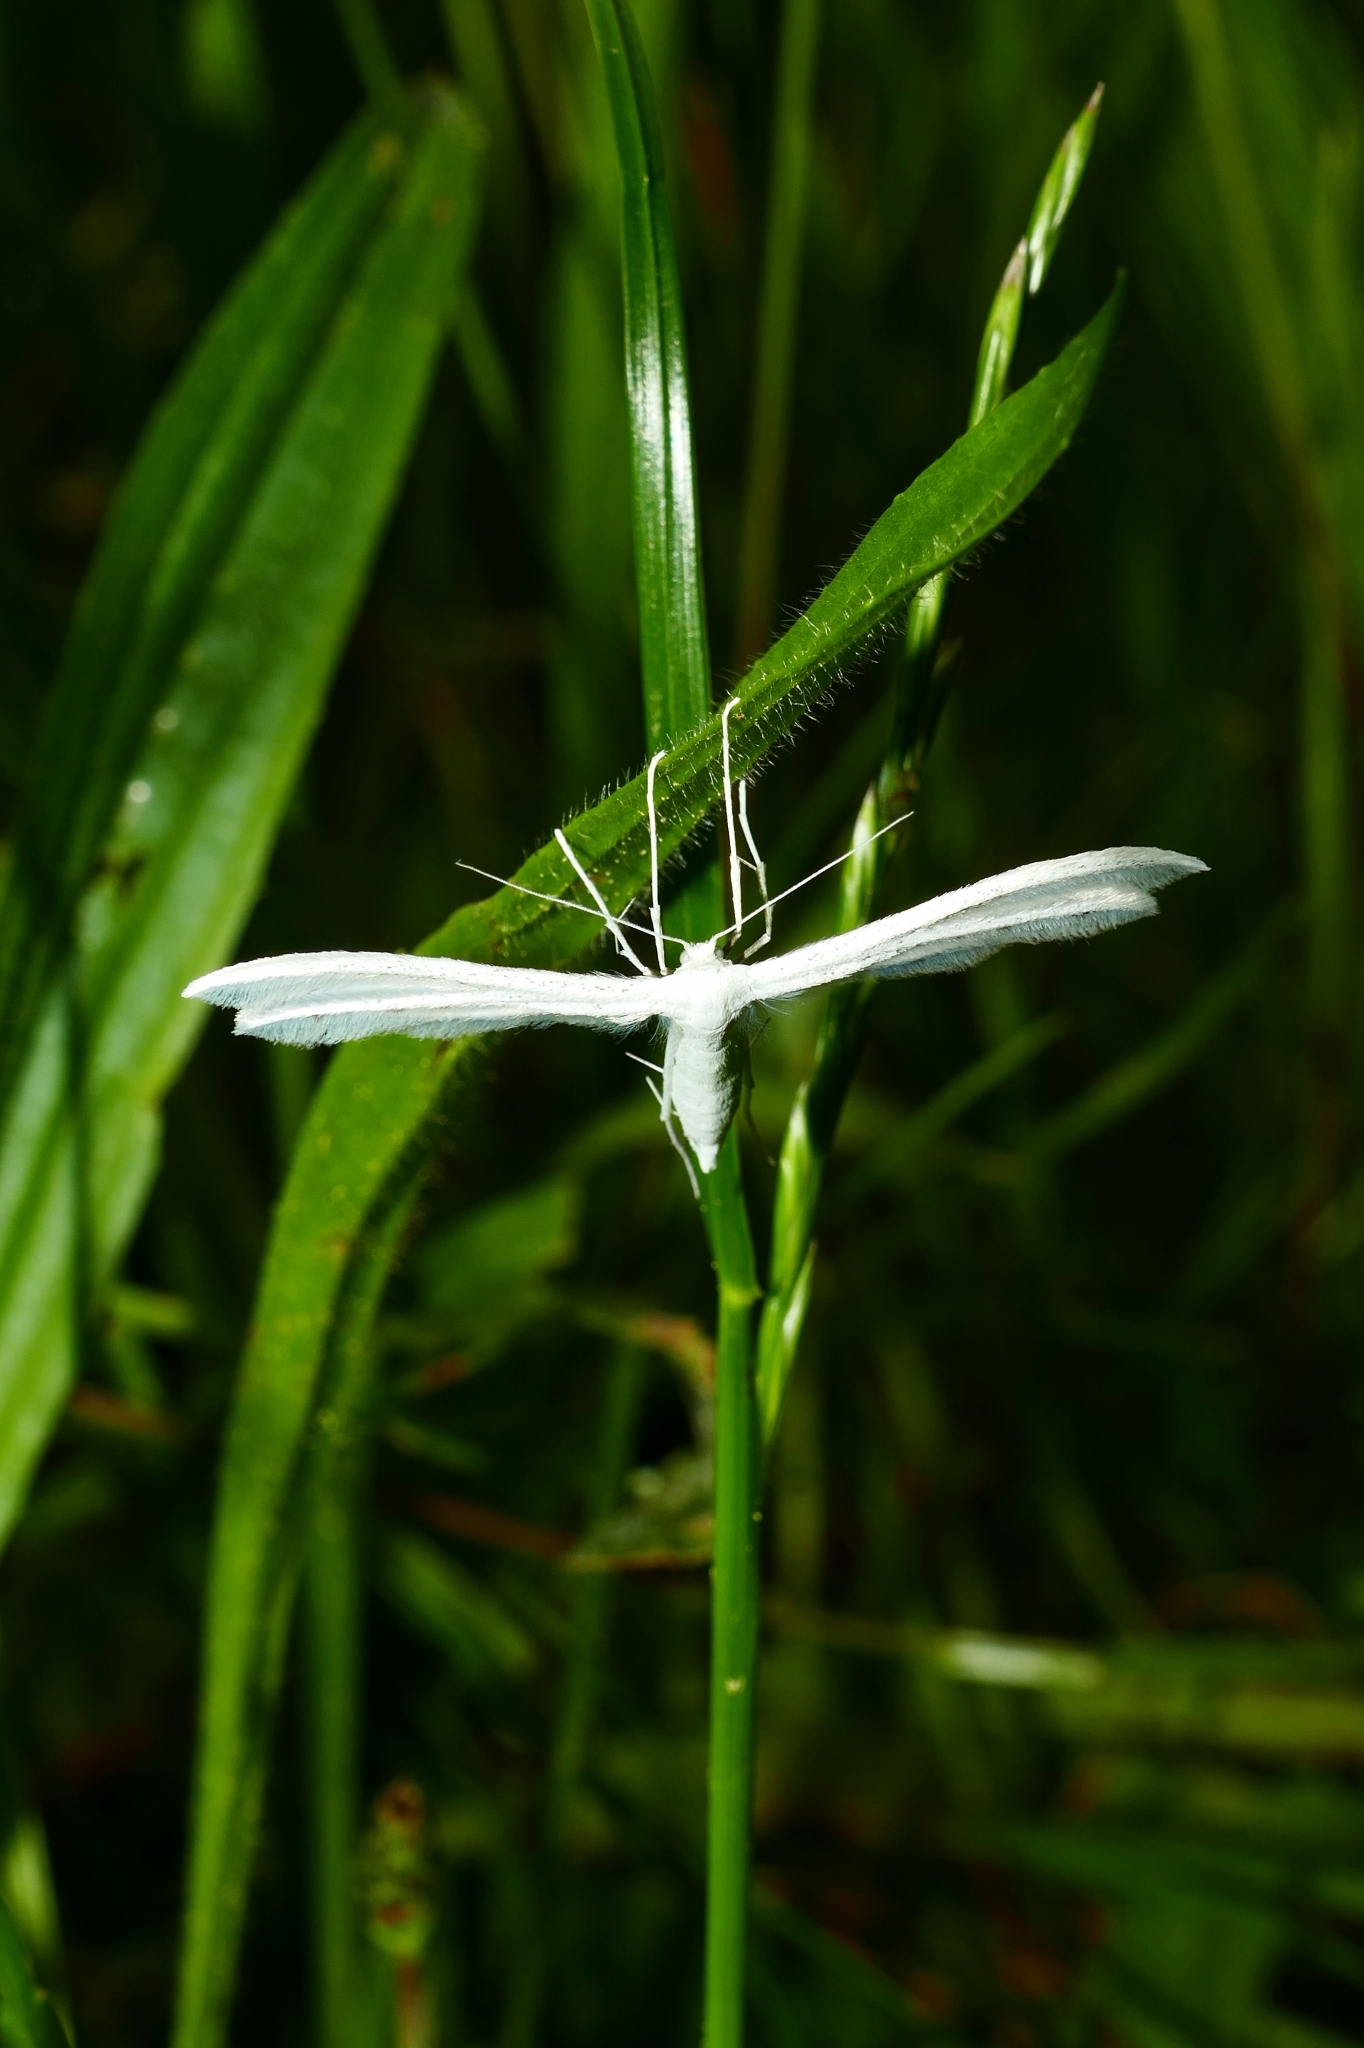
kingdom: Animalia
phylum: Arthropoda
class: Insecta
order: Lepidoptera
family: Pterophoridae
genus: Pterophorus
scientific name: Pterophorus pentadactyla
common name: White plume moth
